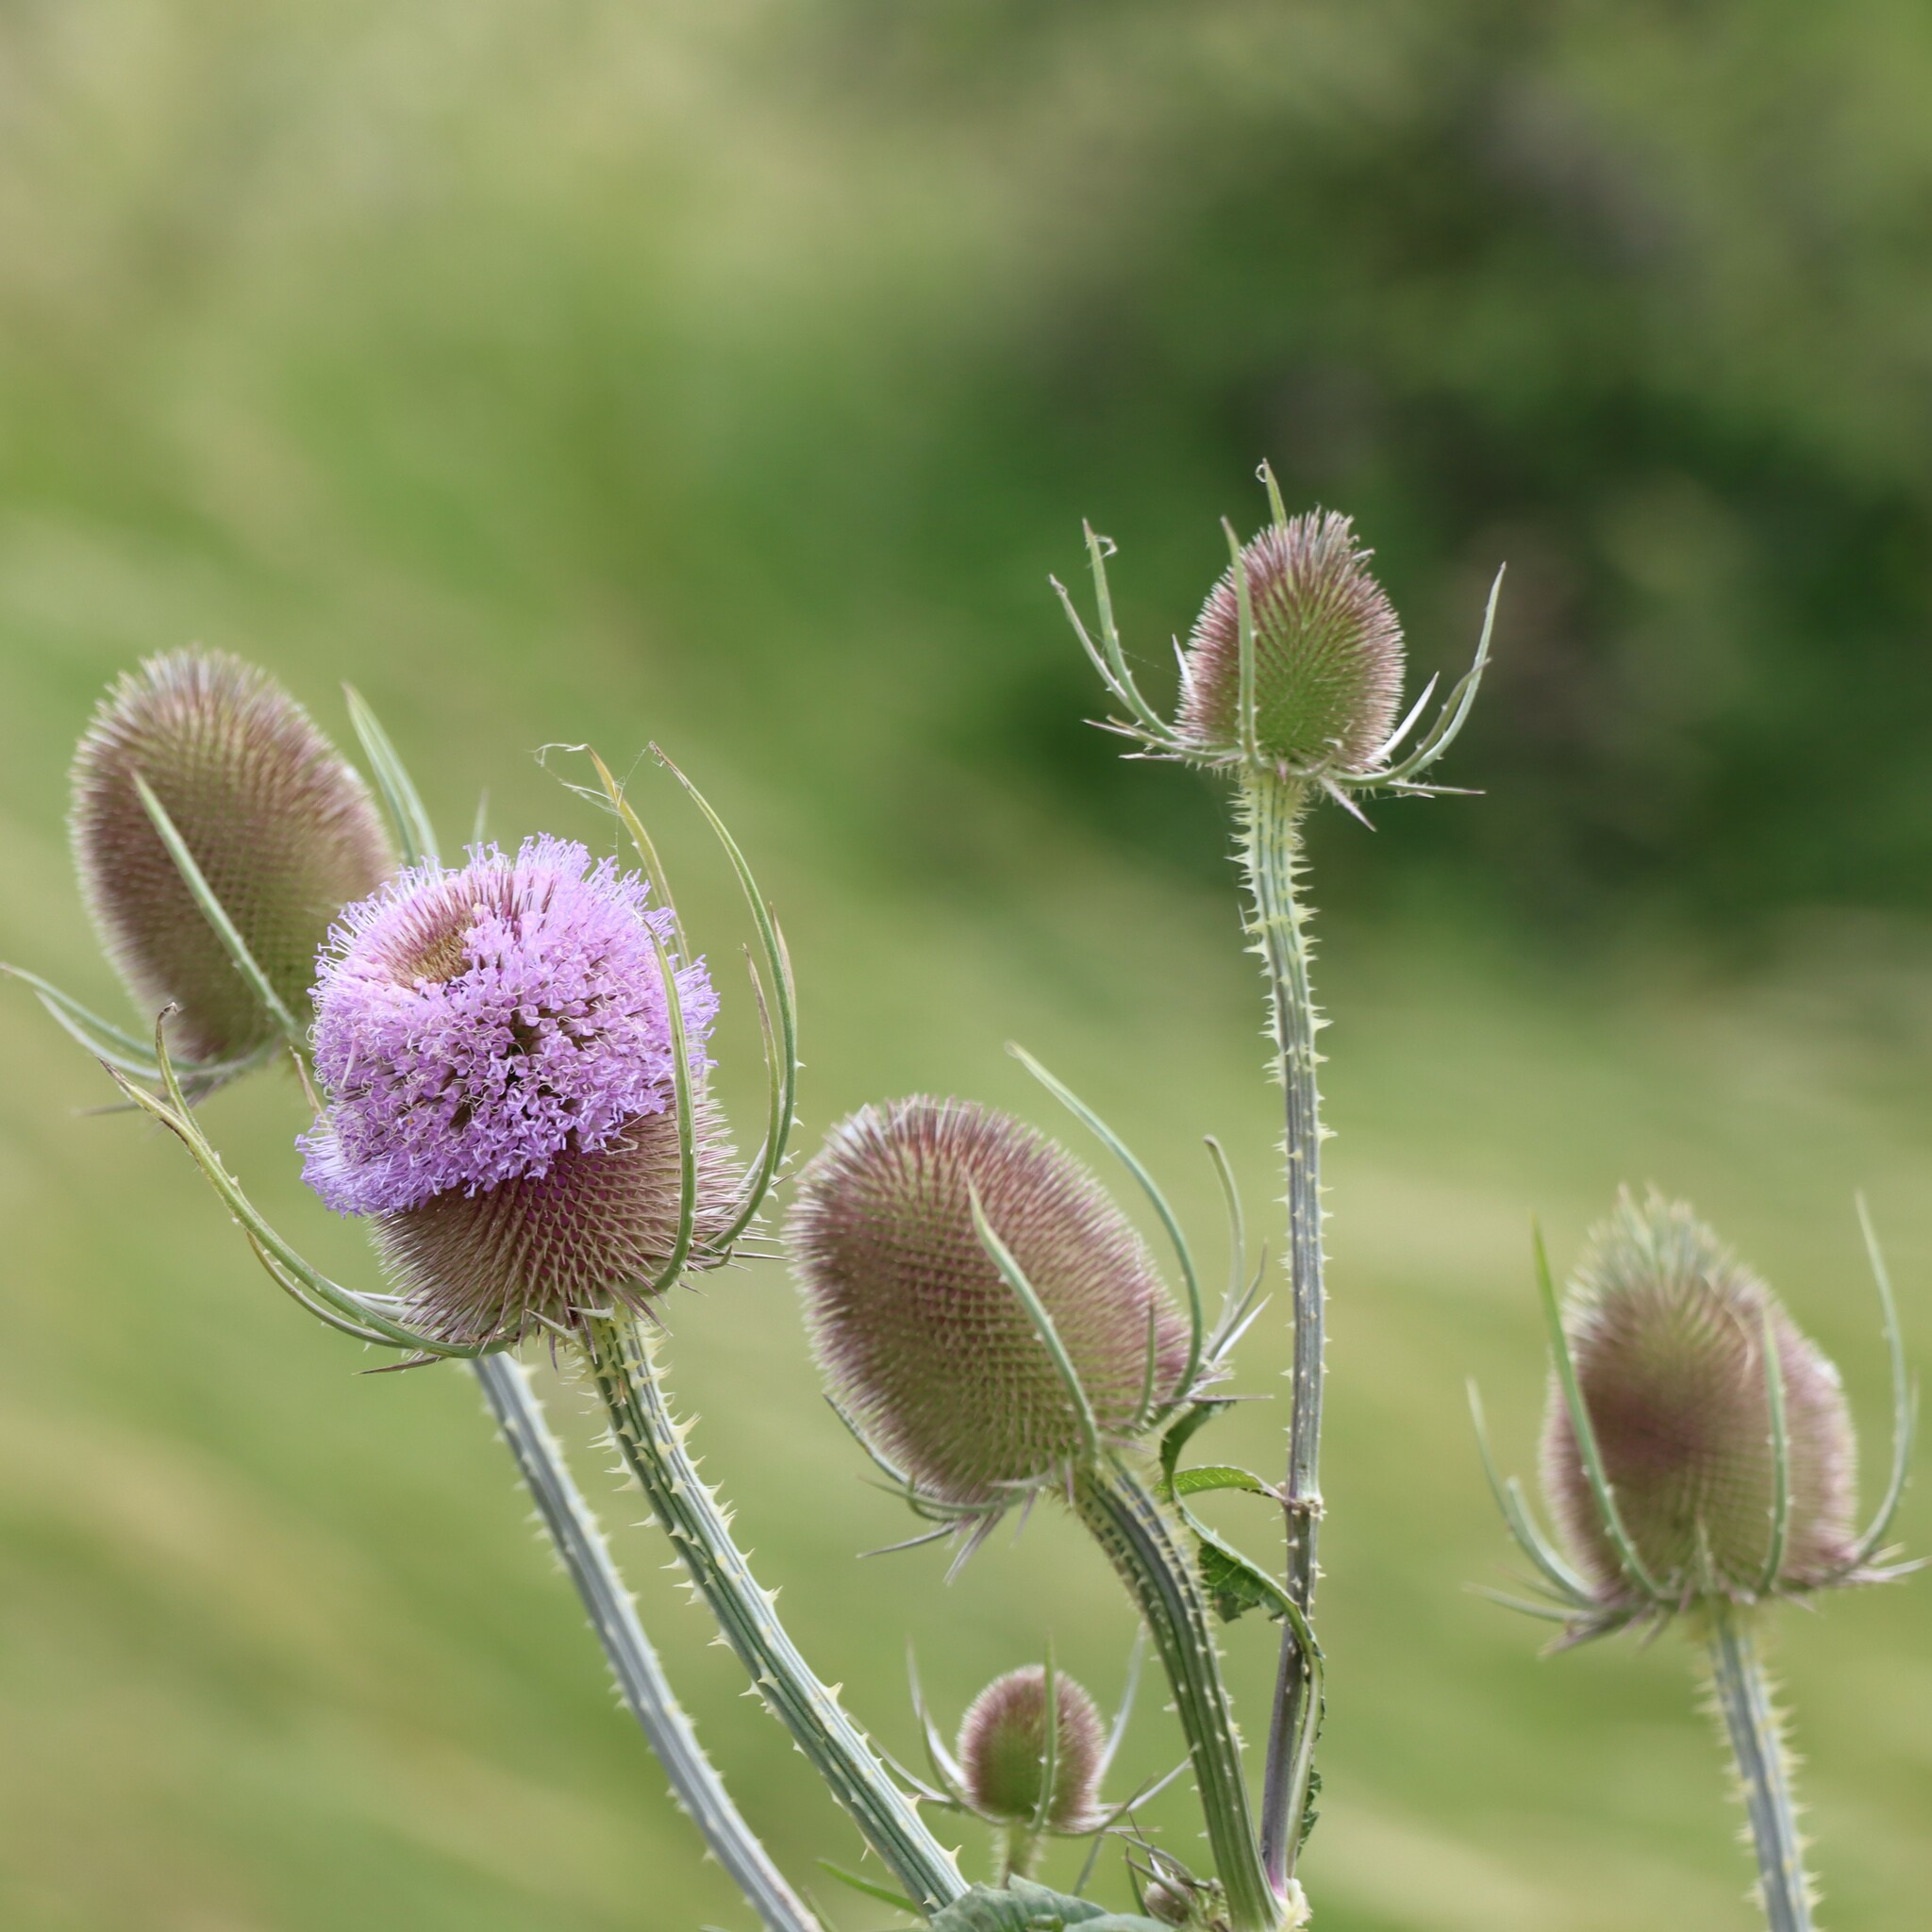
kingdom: Plantae
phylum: Tracheophyta
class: Magnoliopsida
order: Dipsacales
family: Caprifoliaceae
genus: Dipsacus
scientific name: Dipsacus fullonum
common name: Teasel
